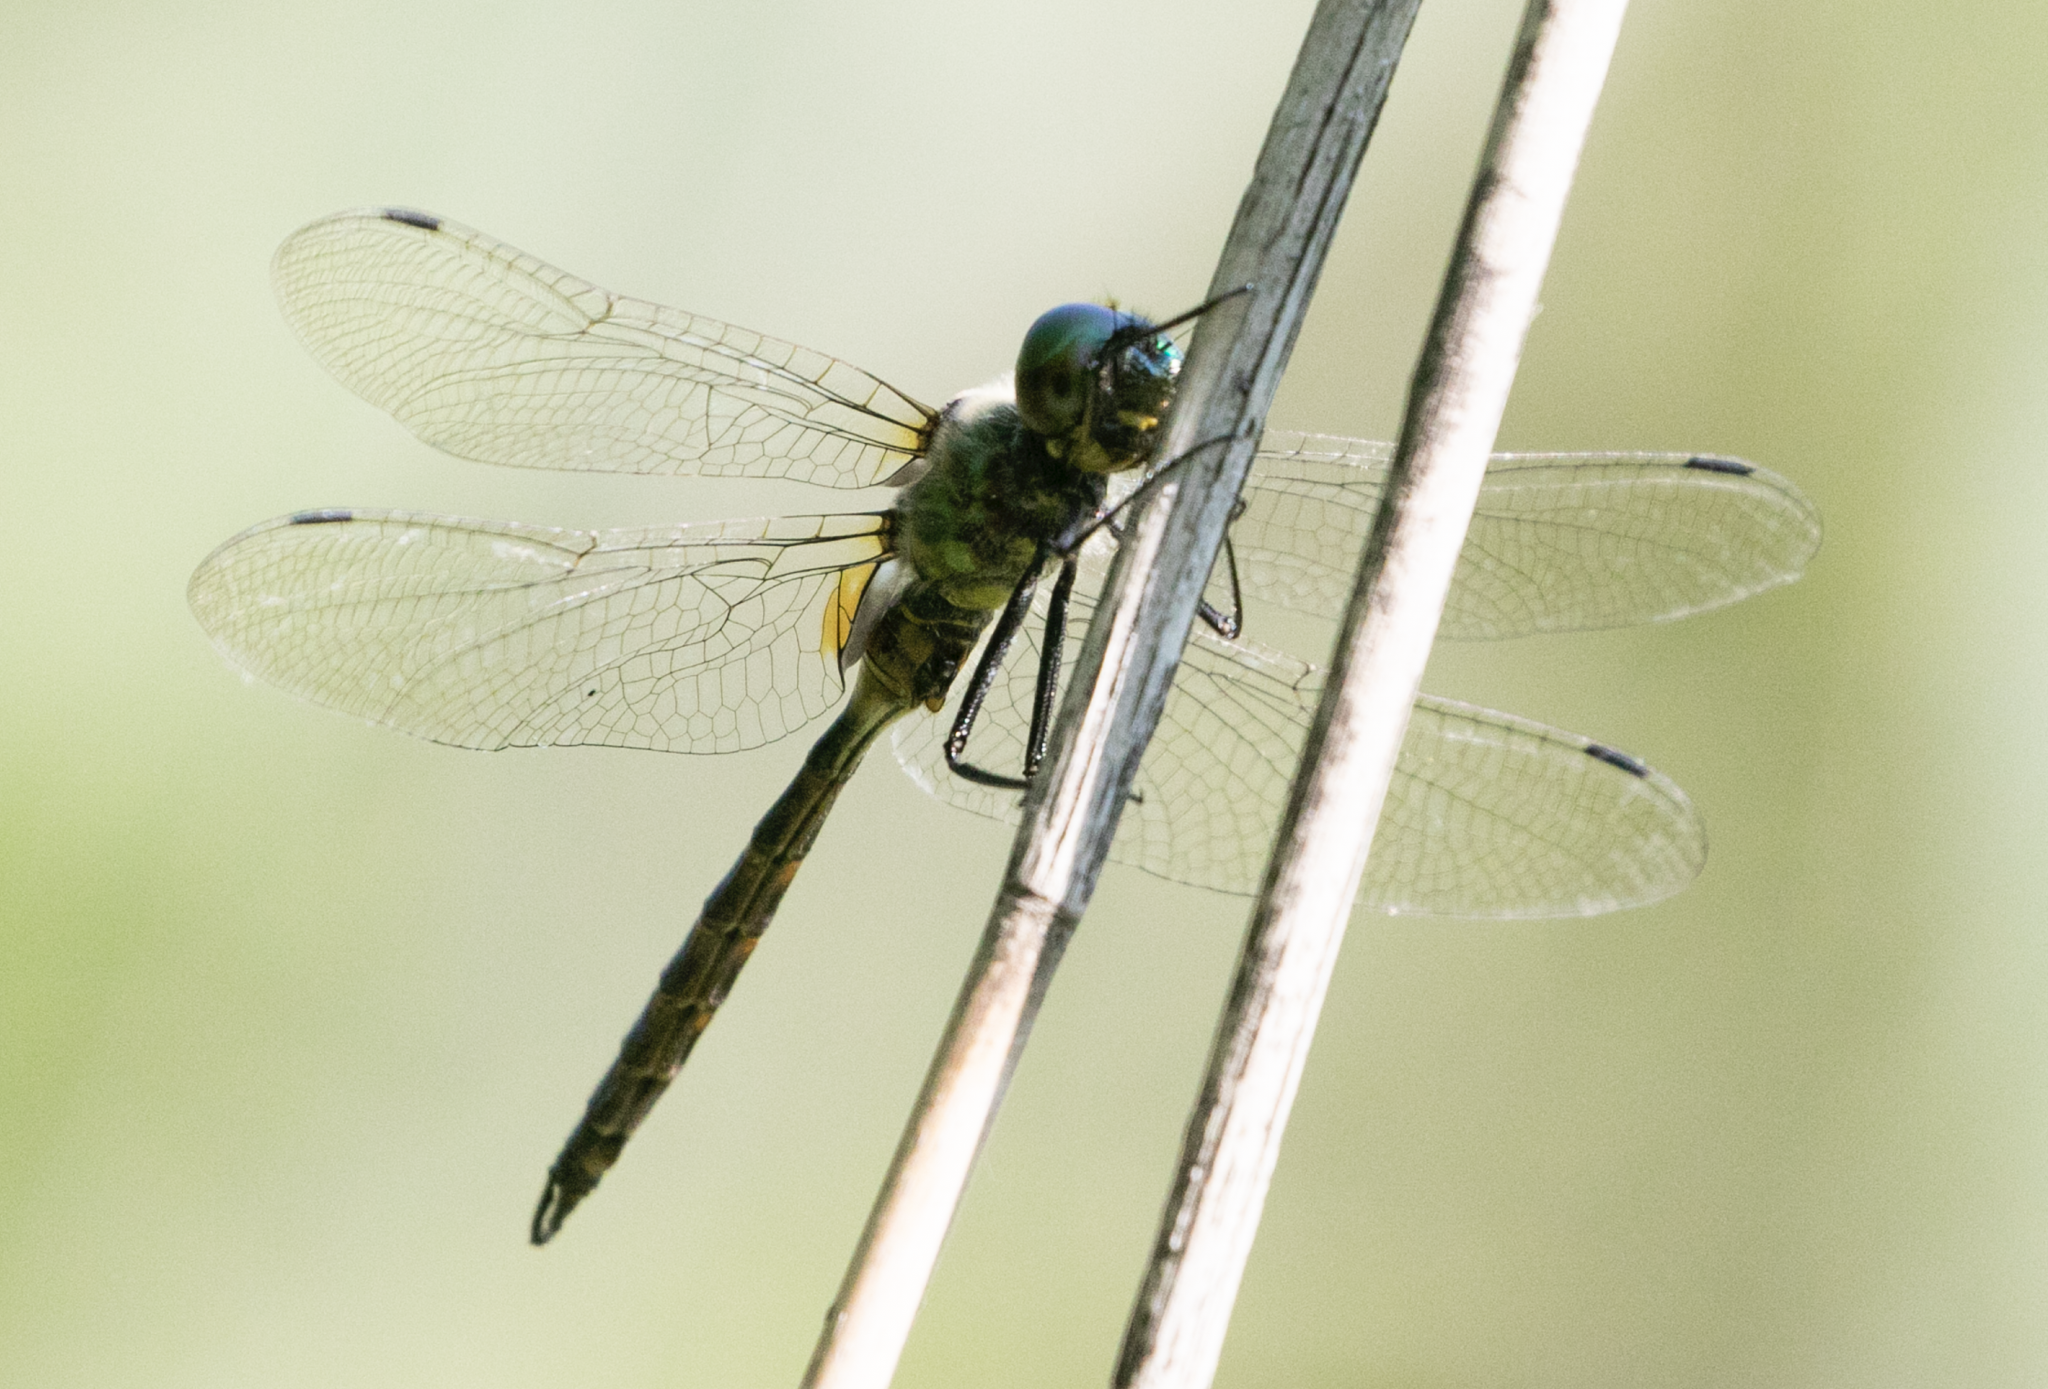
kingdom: Animalia
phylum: Arthropoda
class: Insecta
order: Odonata
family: Corduliidae
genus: Somatochlora
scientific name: Somatochlora flavomaculata
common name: Yellow-spotted emerald
